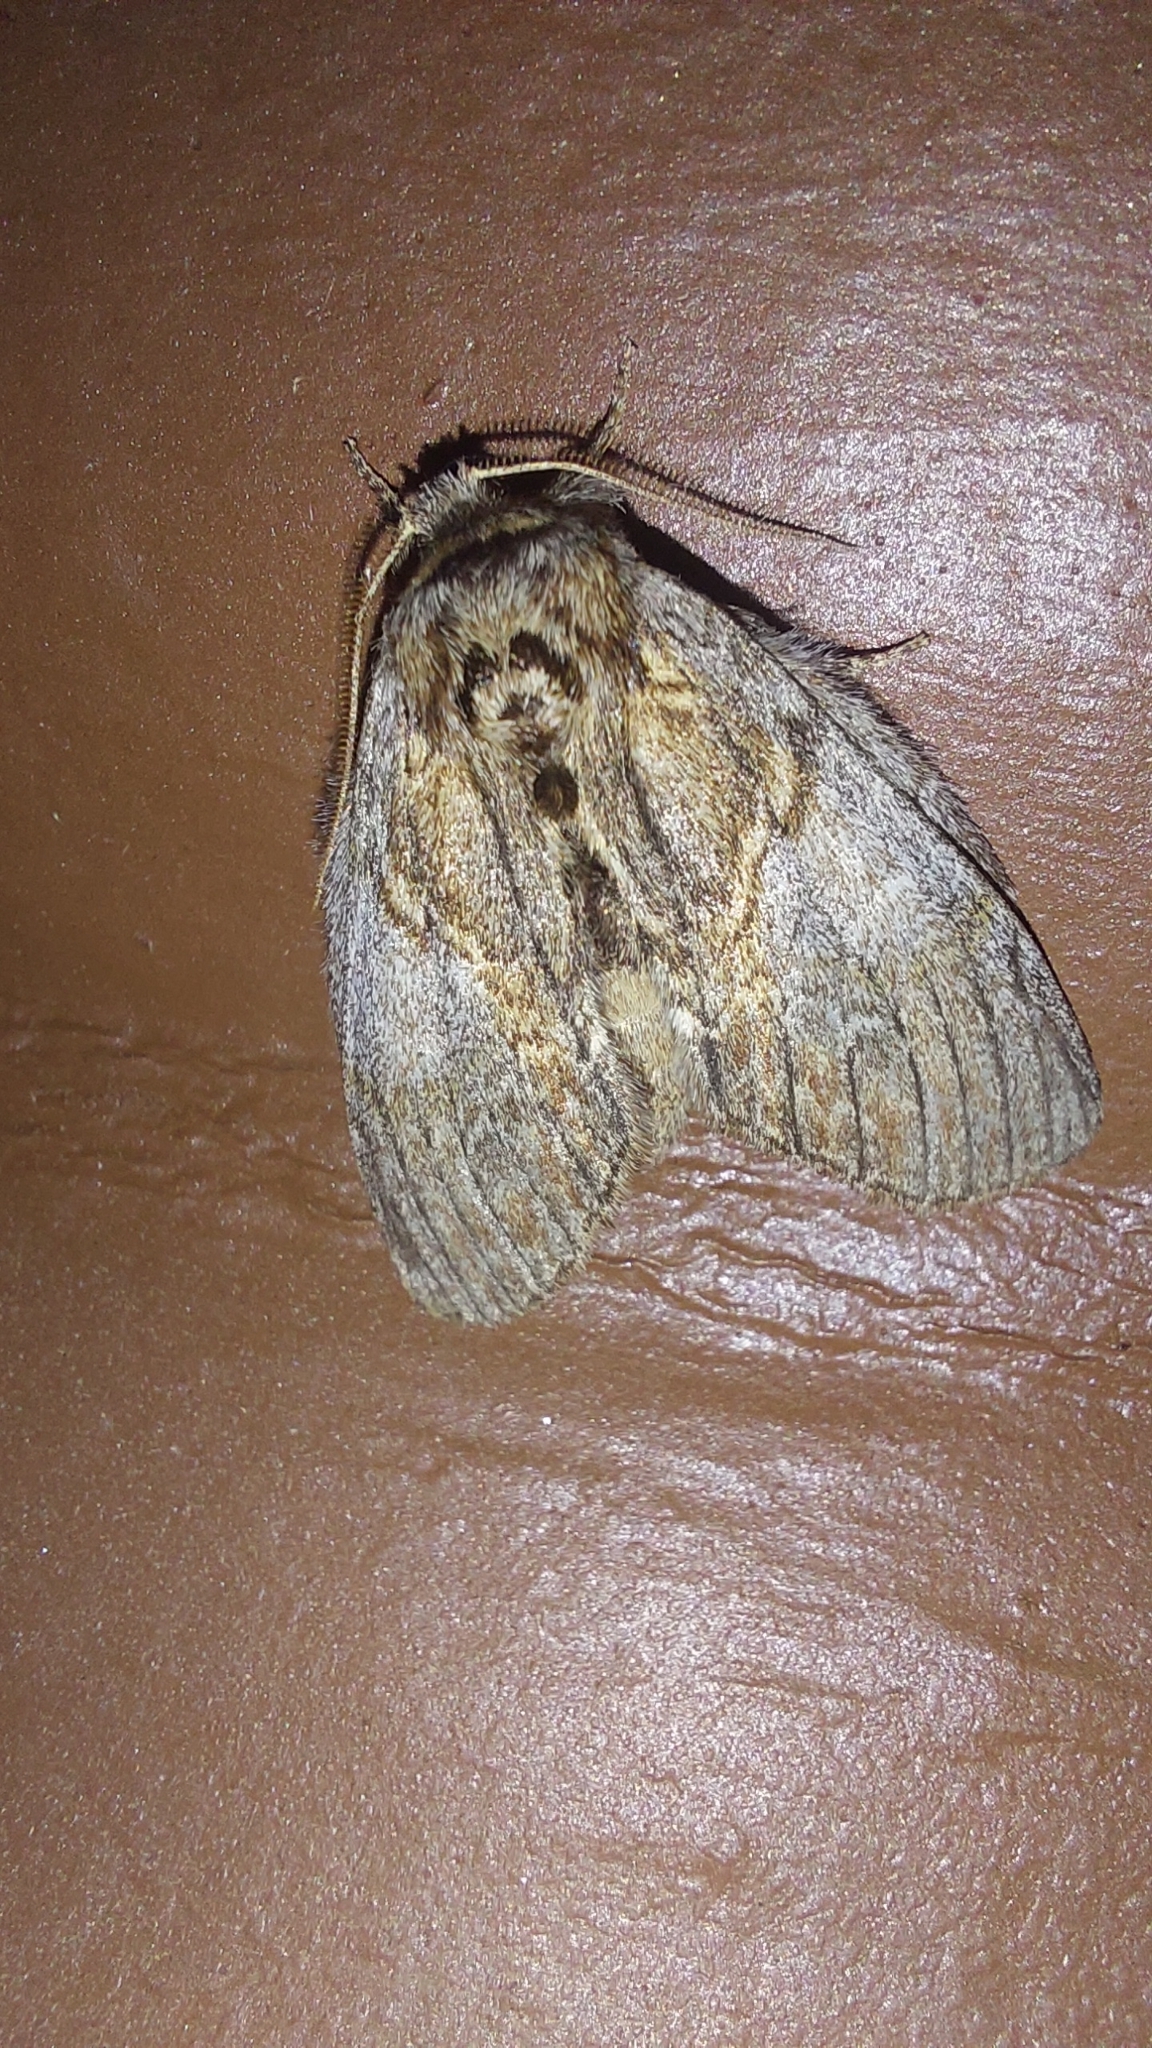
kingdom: Animalia
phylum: Arthropoda
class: Insecta
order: Lepidoptera
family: Notodontidae
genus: Peridea
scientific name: Peridea basitriens
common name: Oval-based prominent
